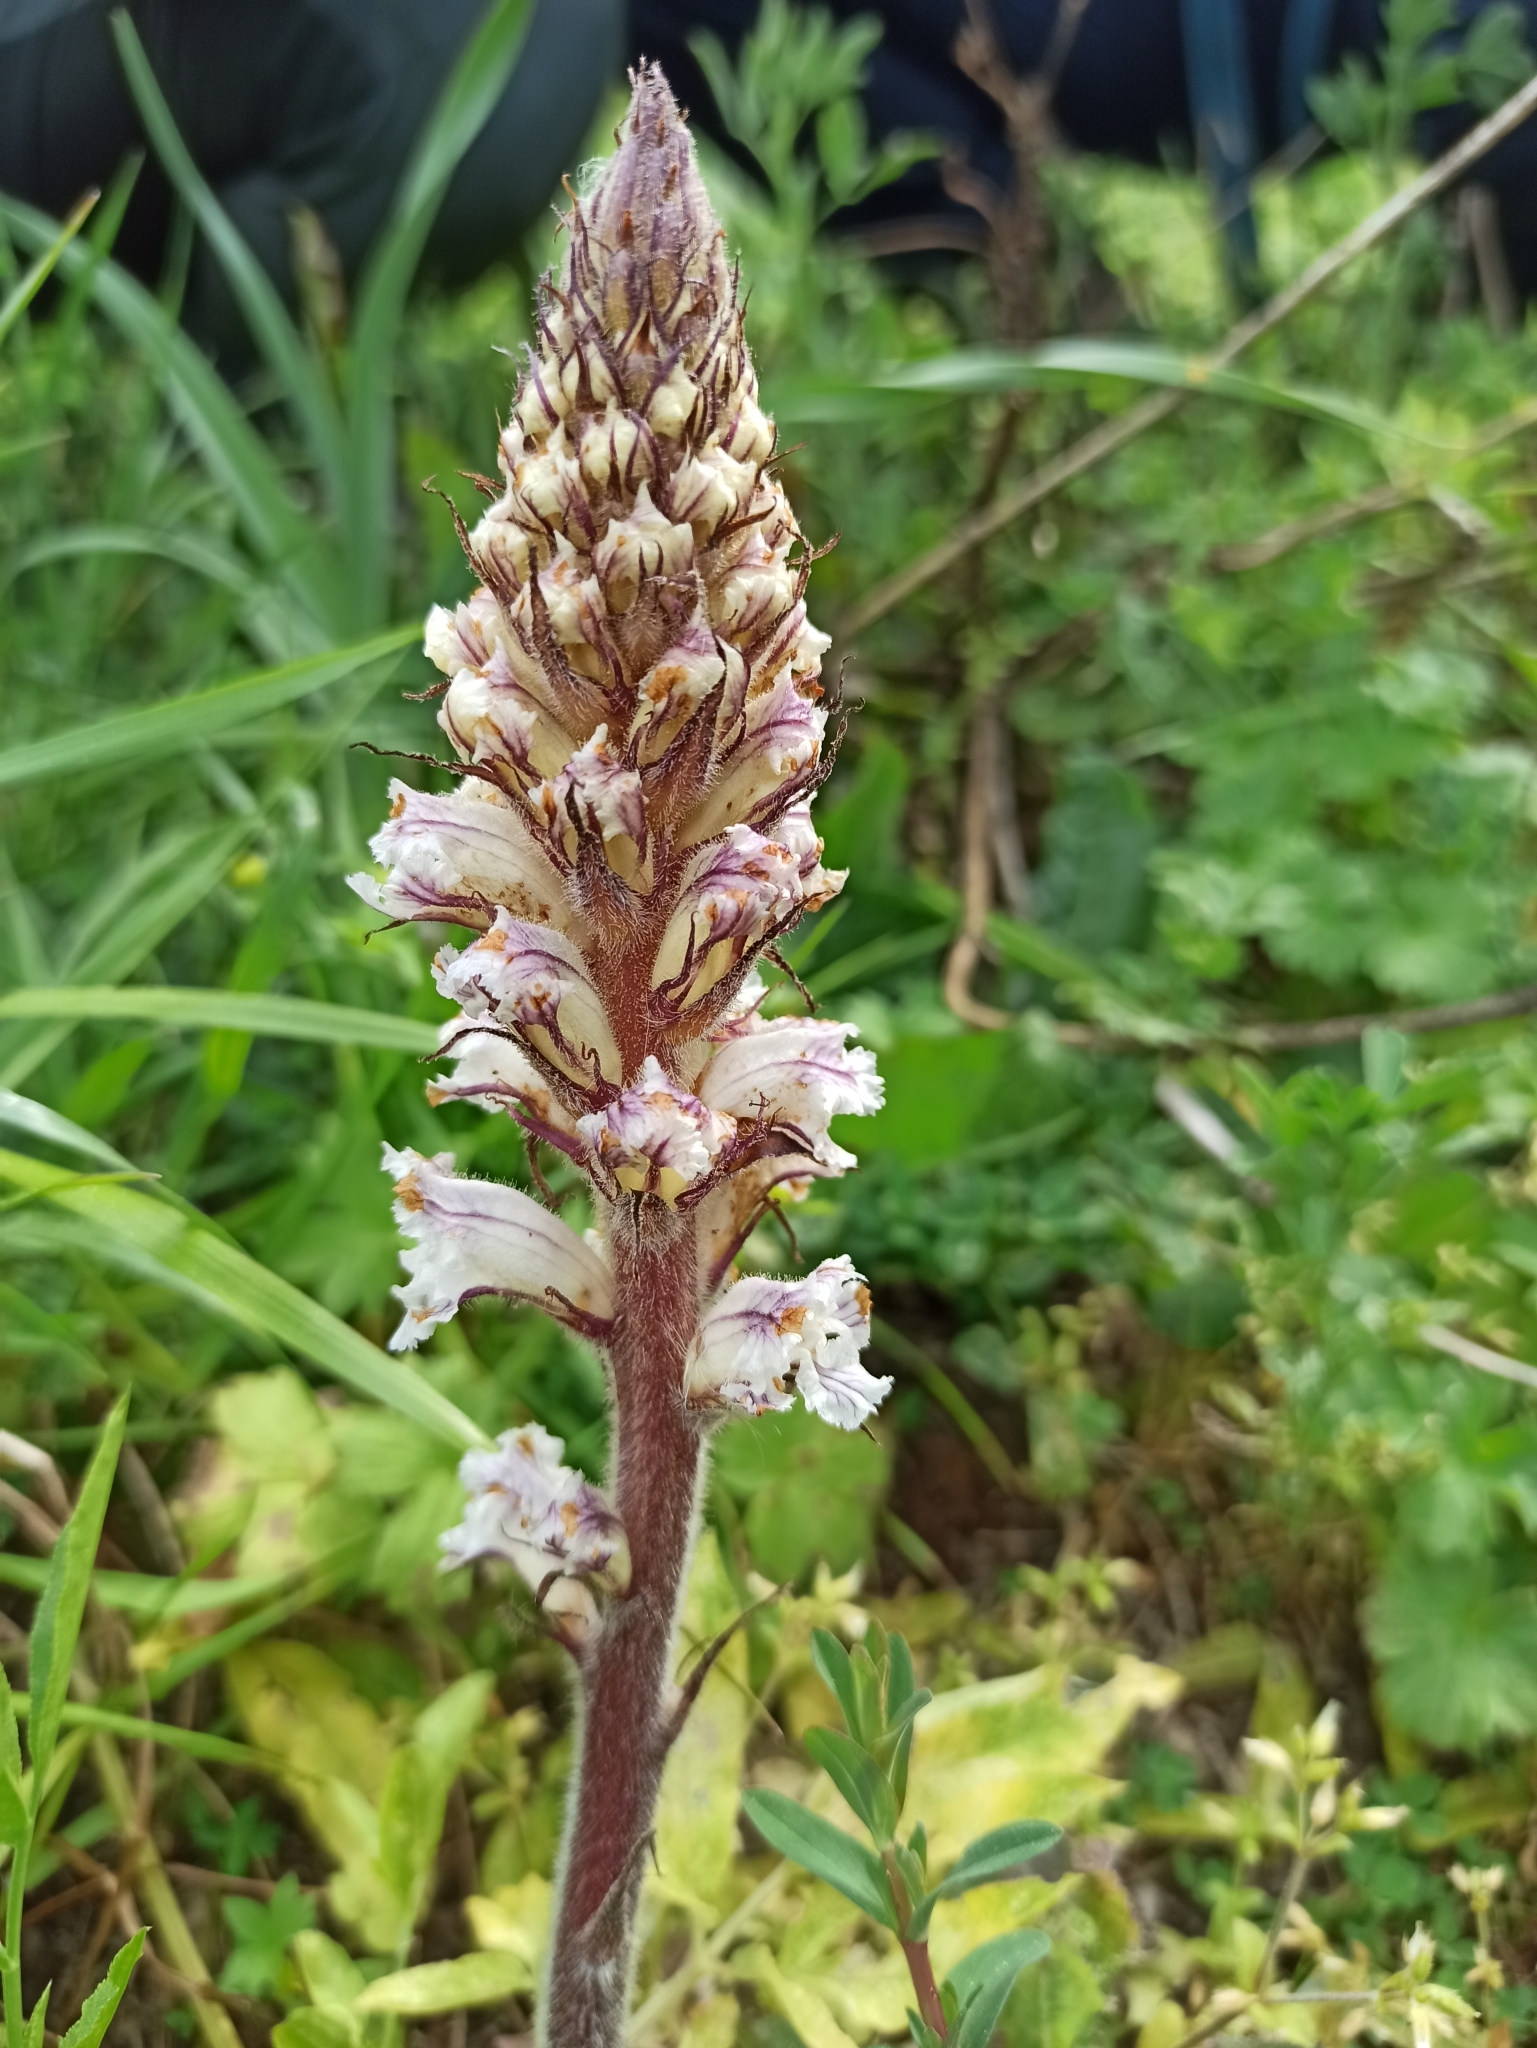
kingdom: Plantae
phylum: Tracheophyta
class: Magnoliopsida
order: Lamiales
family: Orobanchaceae
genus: Orobanche
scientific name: Orobanche crenata
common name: Bean broomrape
